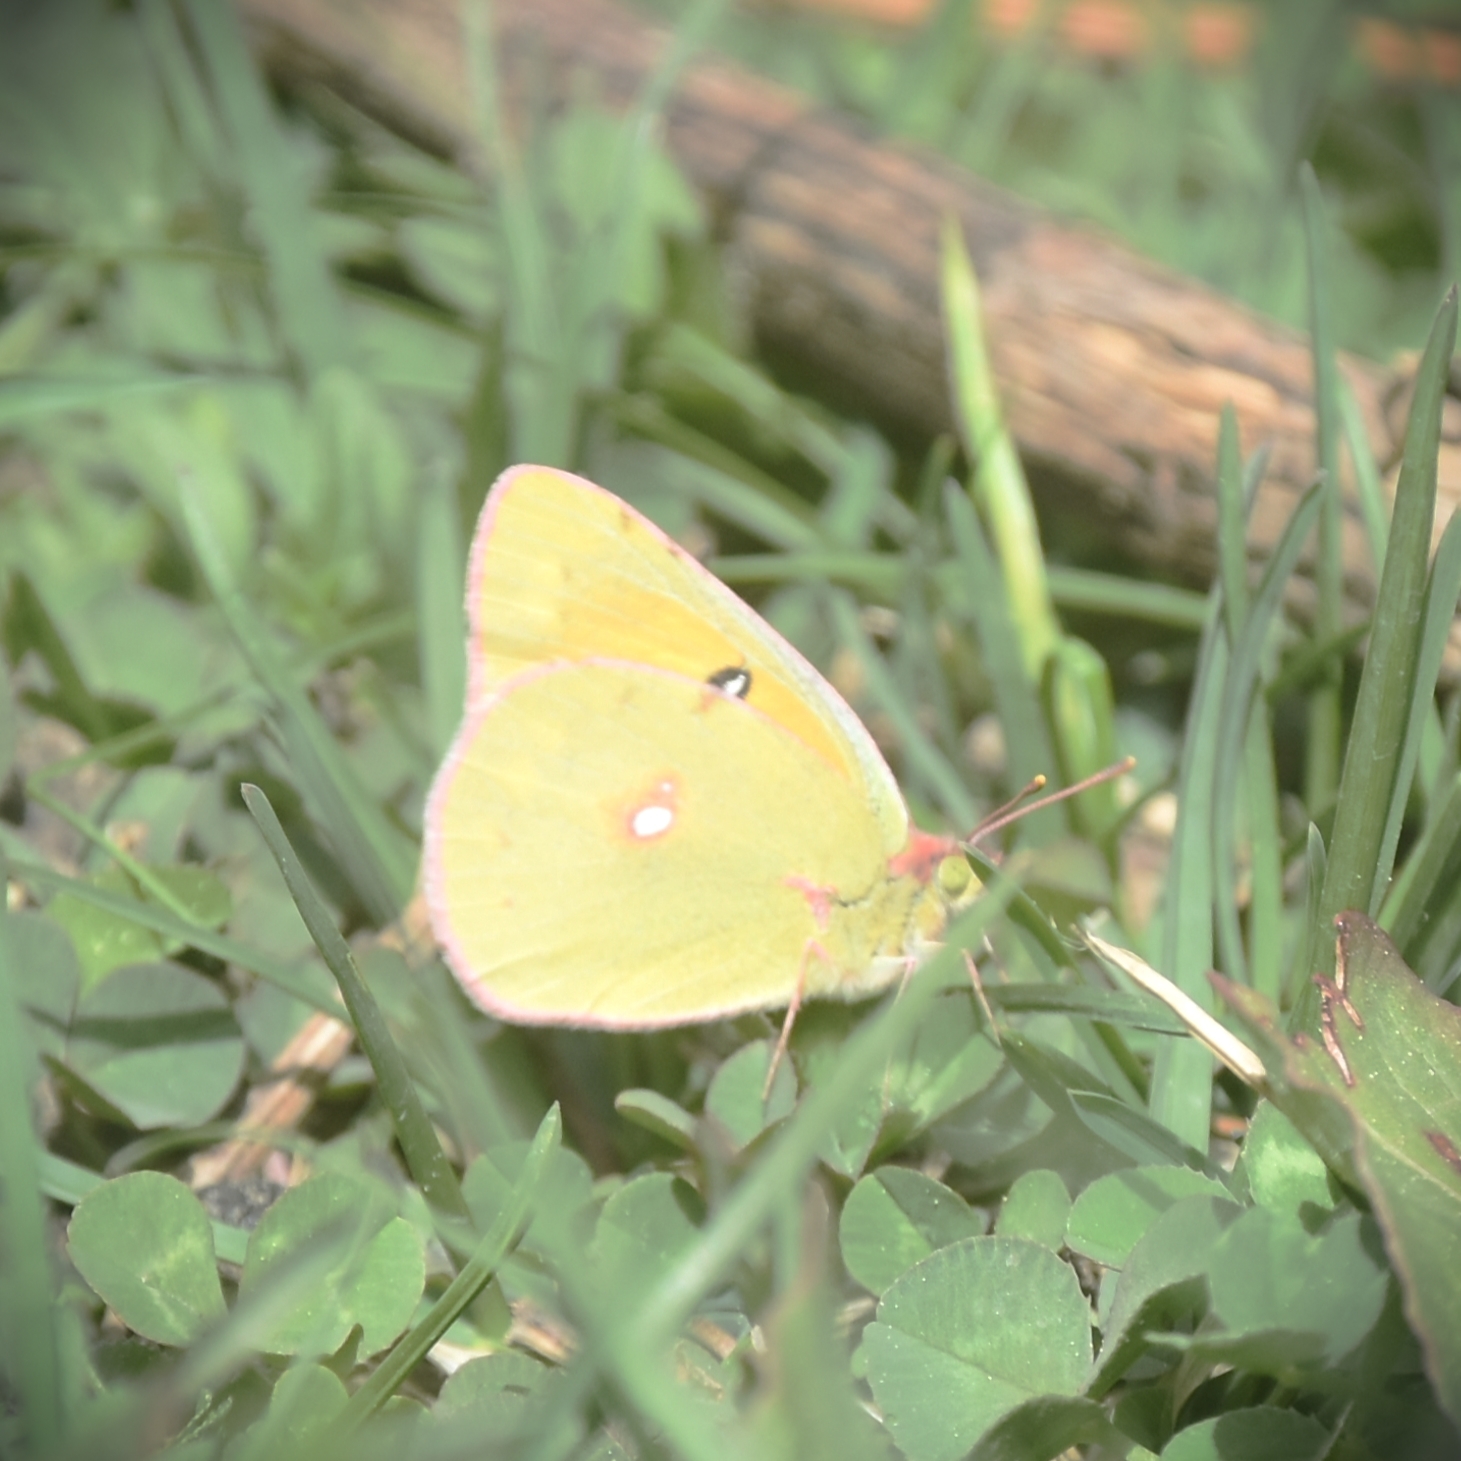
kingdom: Animalia
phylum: Arthropoda
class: Insecta
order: Lepidoptera
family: Pieridae
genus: Colias
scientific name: Colias fieldii
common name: Dark clouded yellow
